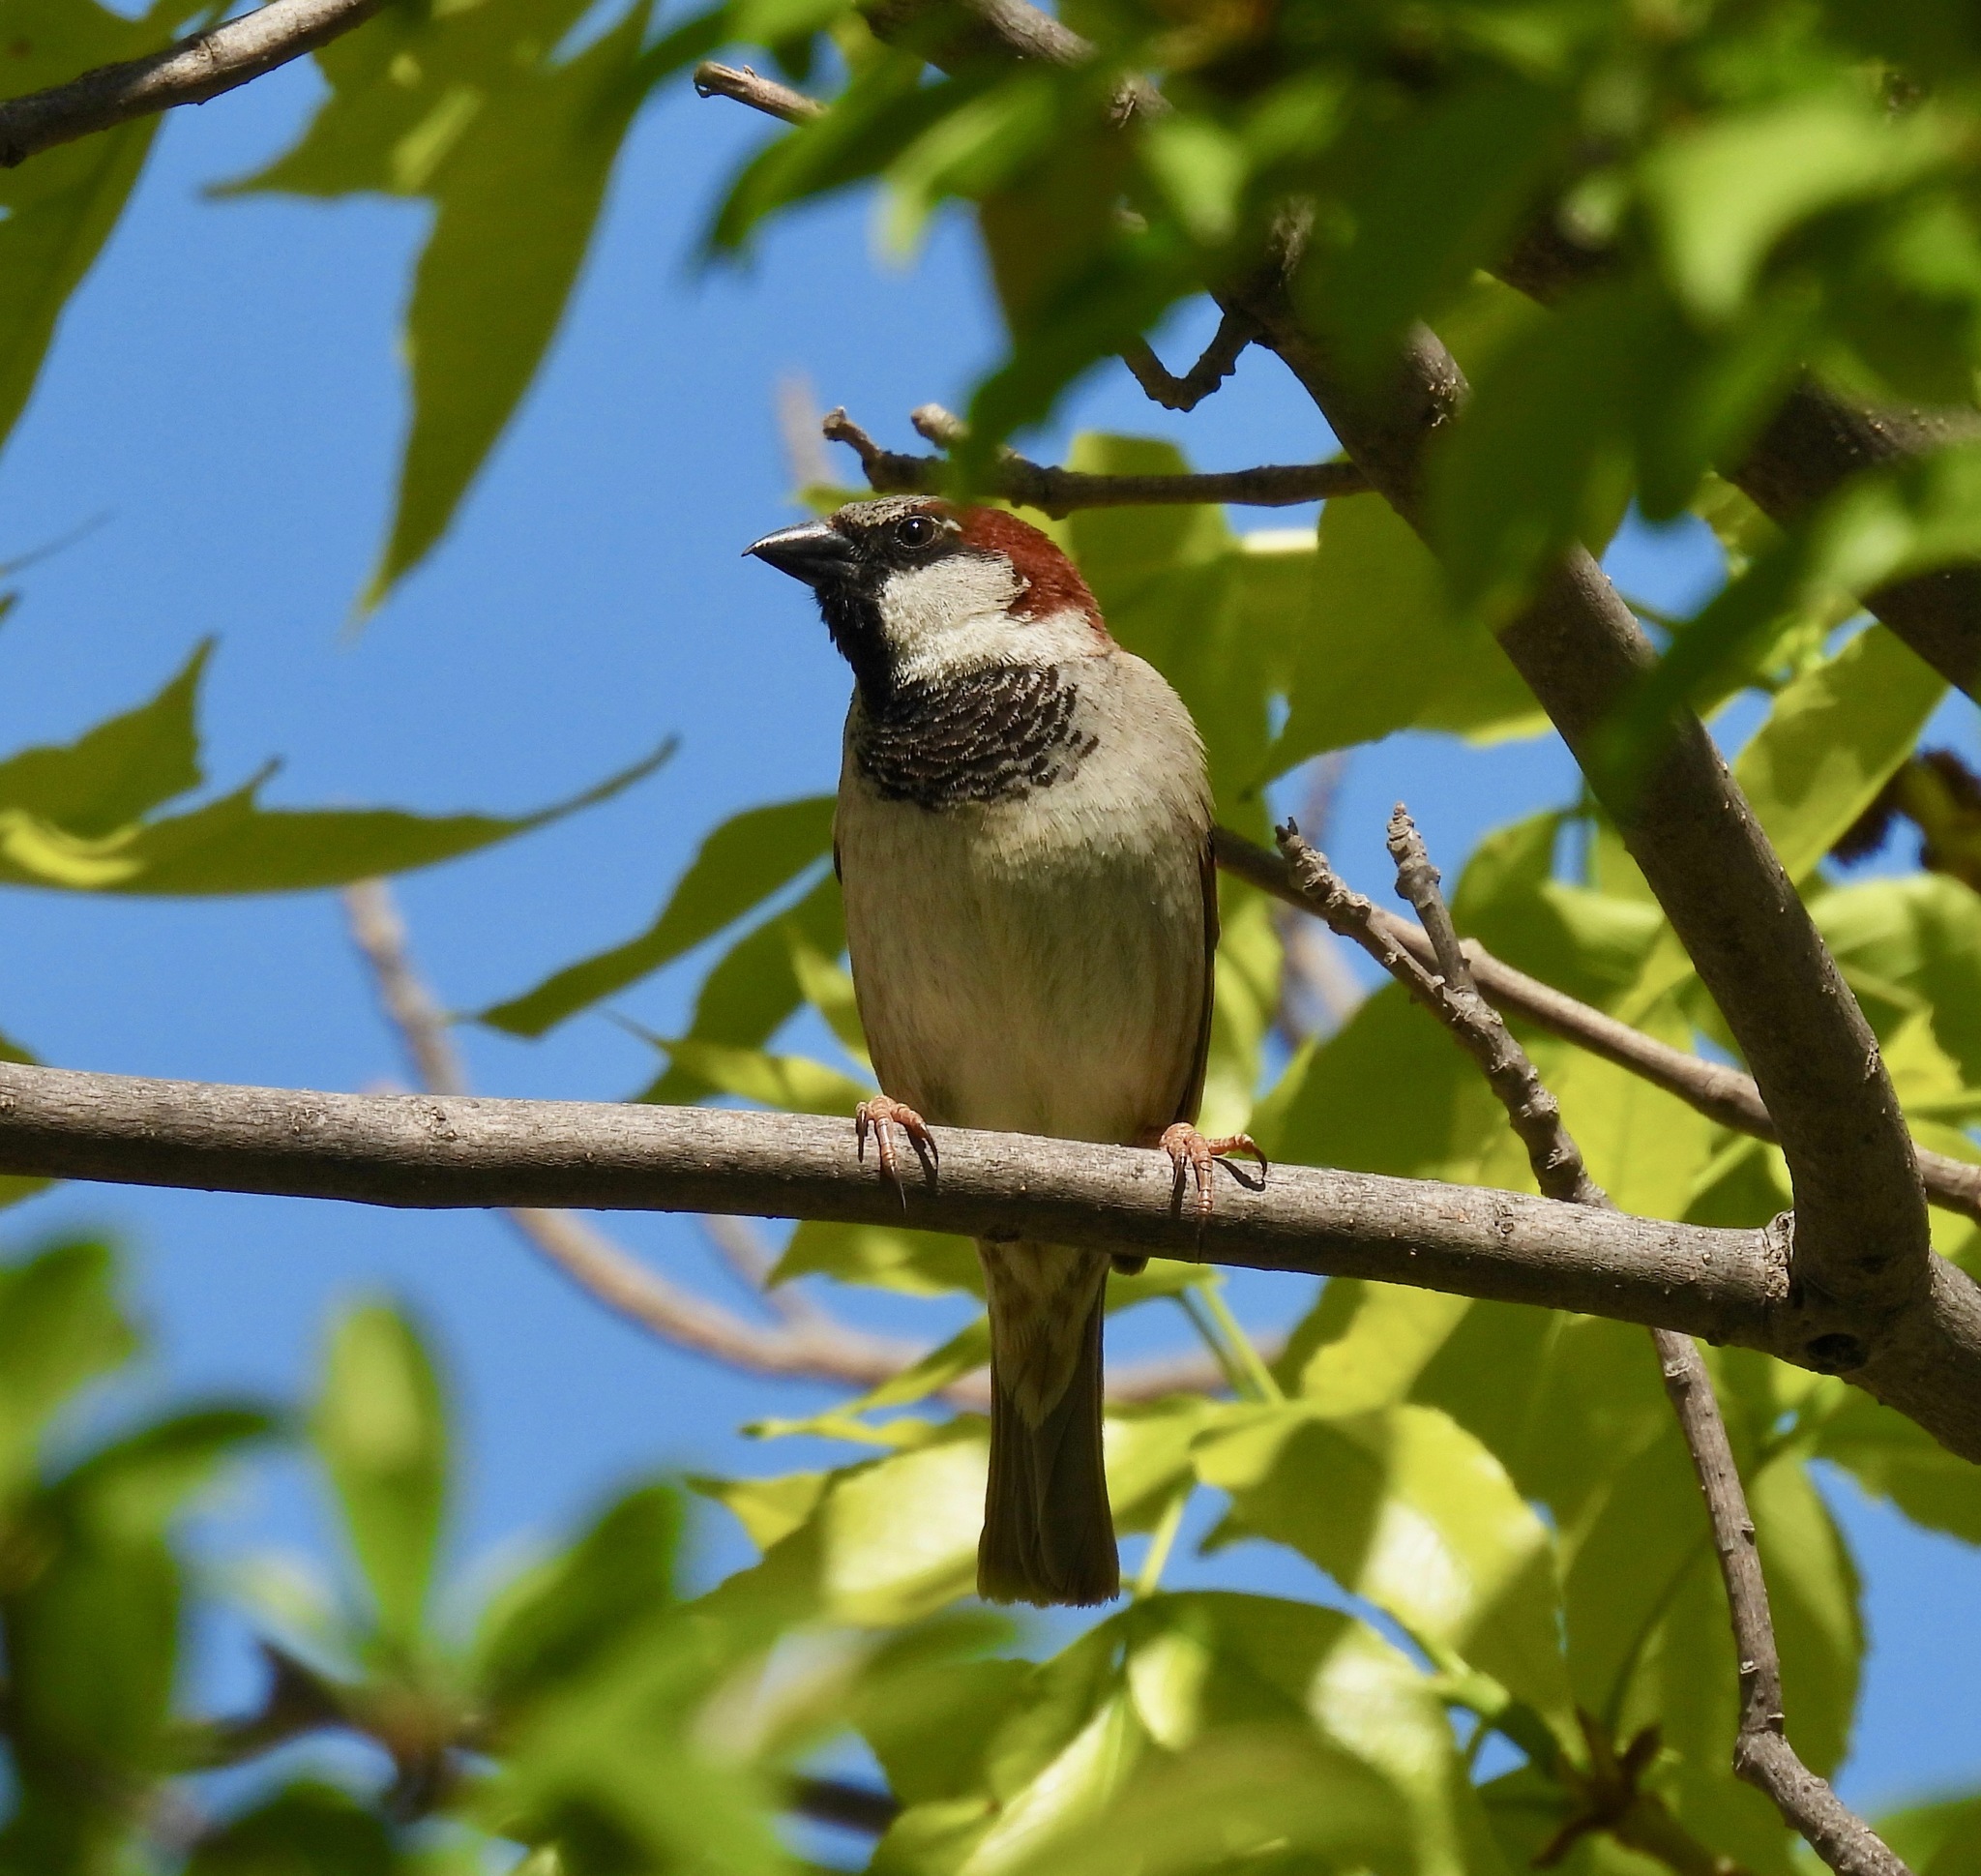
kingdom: Animalia
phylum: Chordata
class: Aves
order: Passeriformes
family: Passeridae
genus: Passer
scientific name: Passer domesticus
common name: House sparrow
